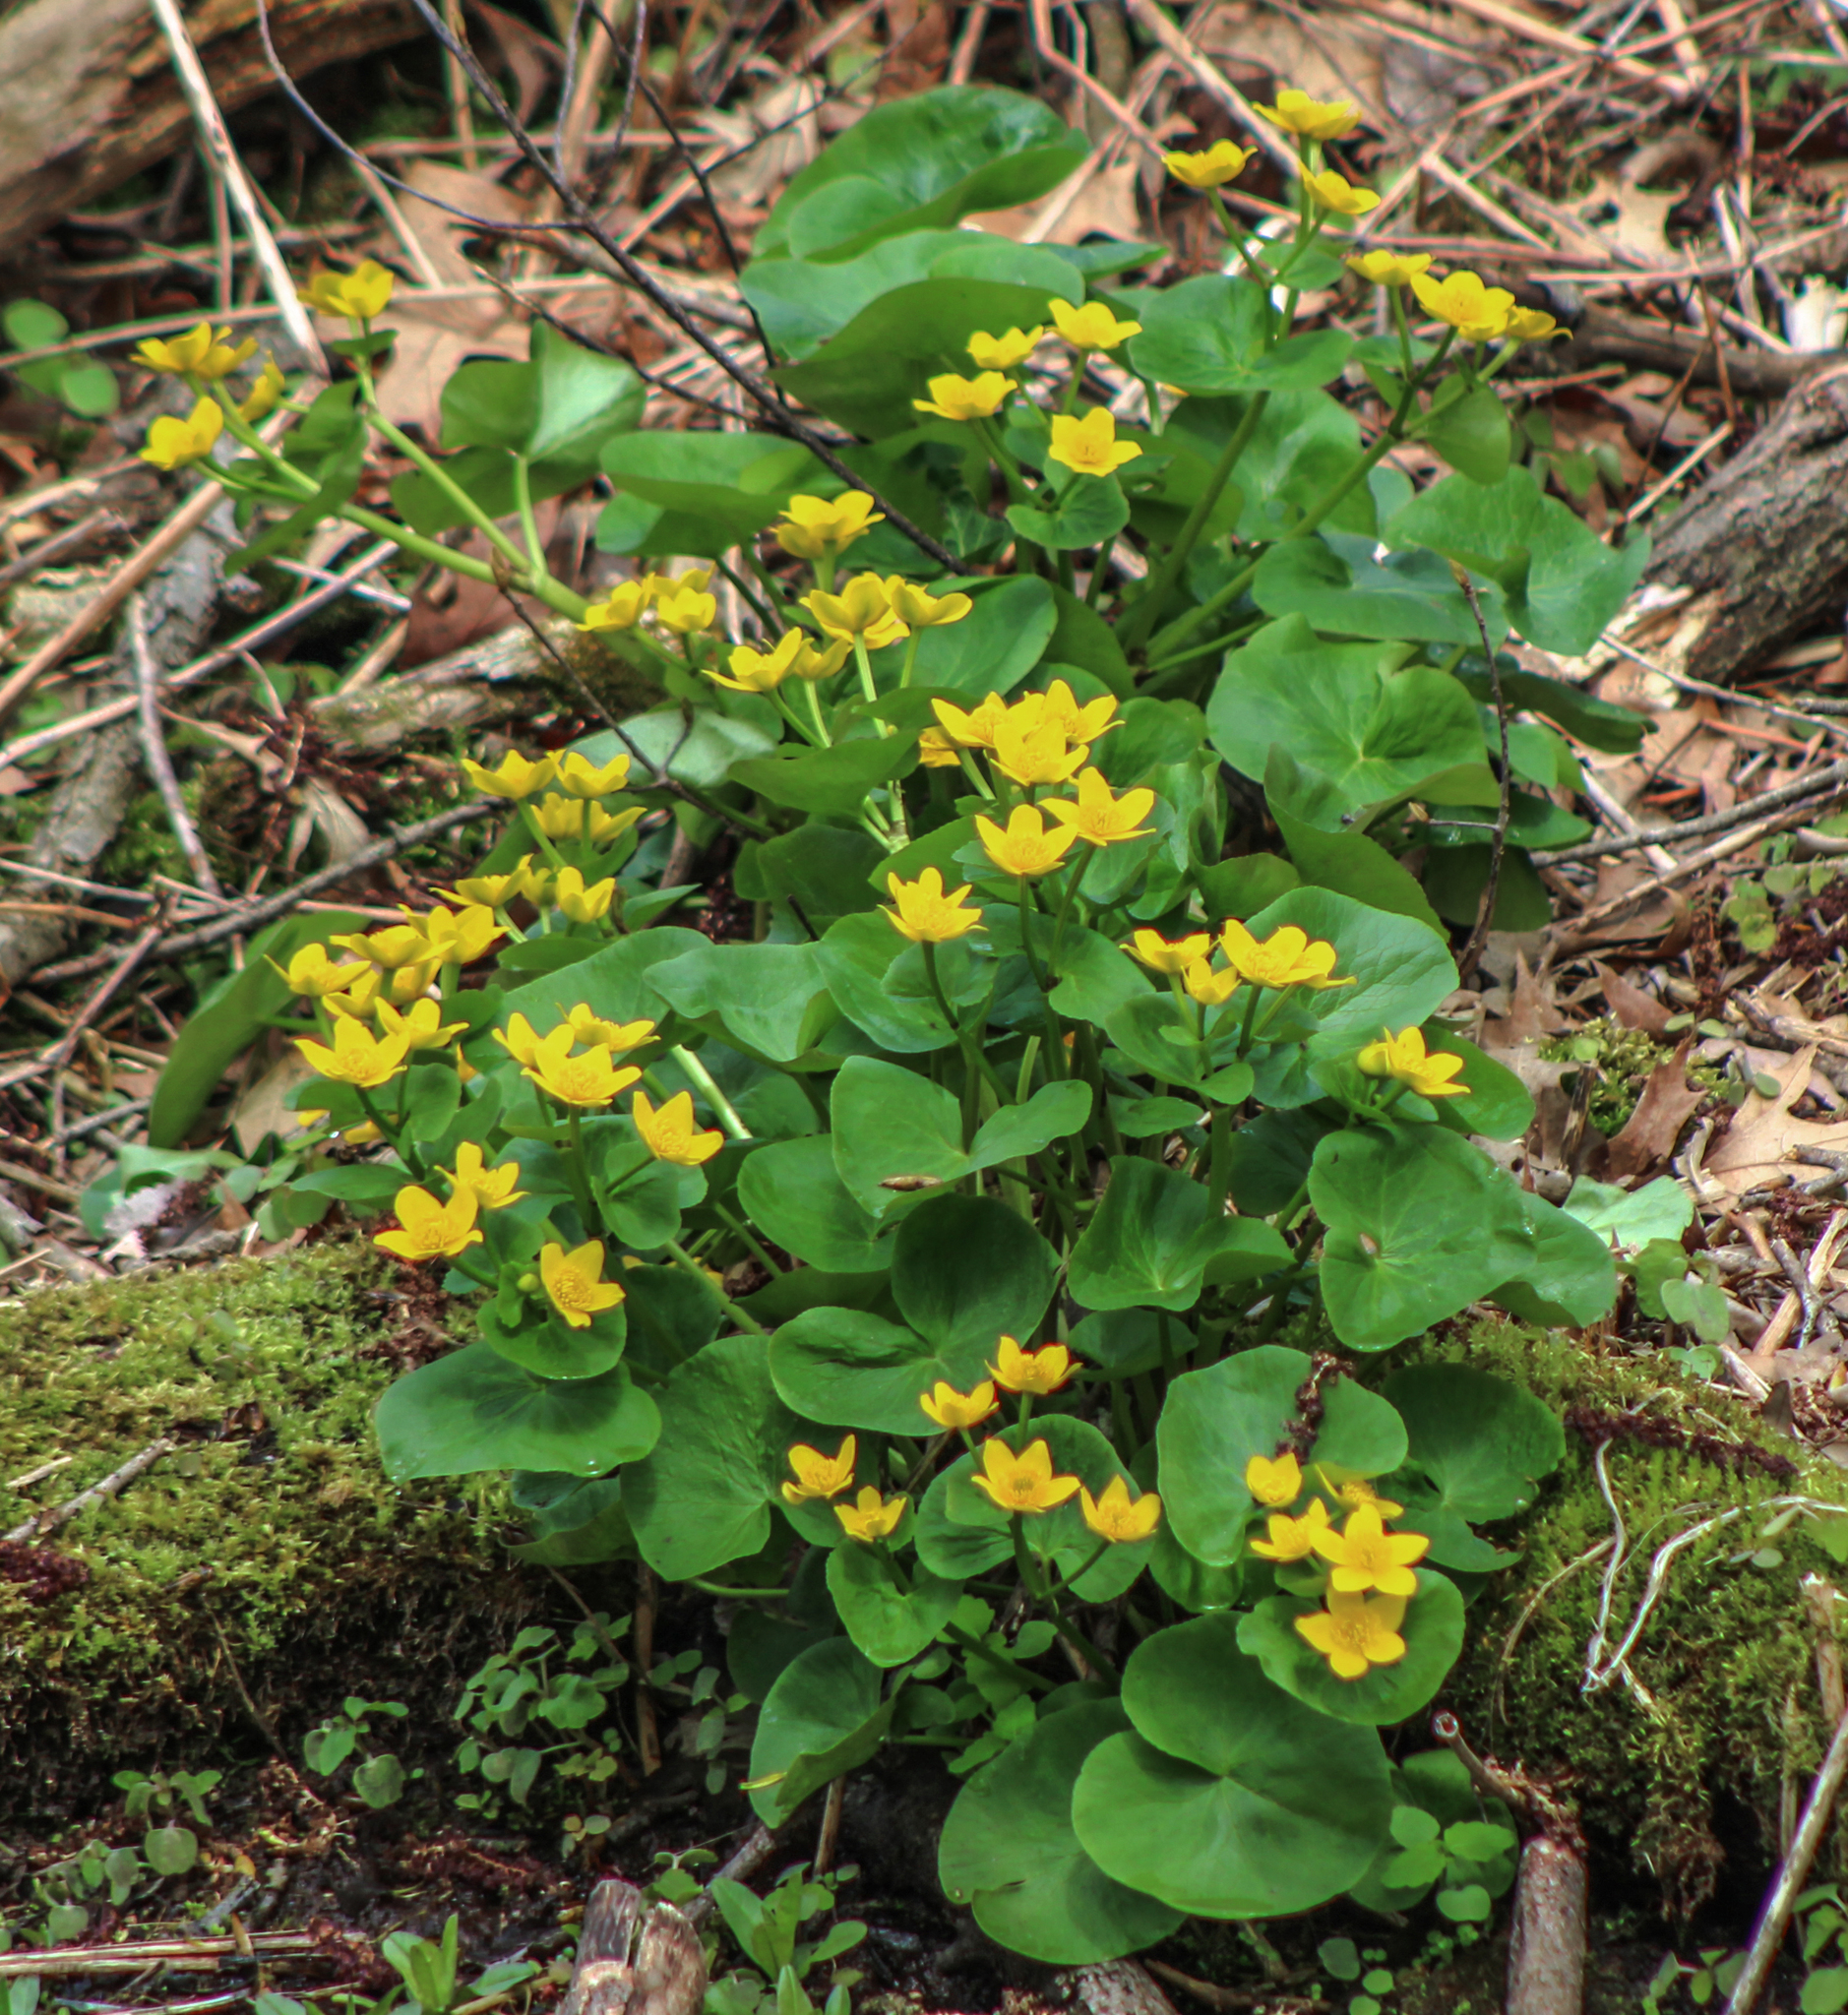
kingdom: Plantae
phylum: Tracheophyta
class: Magnoliopsida
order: Ranunculales
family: Ranunculaceae
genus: Caltha
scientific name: Caltha palustris
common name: Marsh marigold
